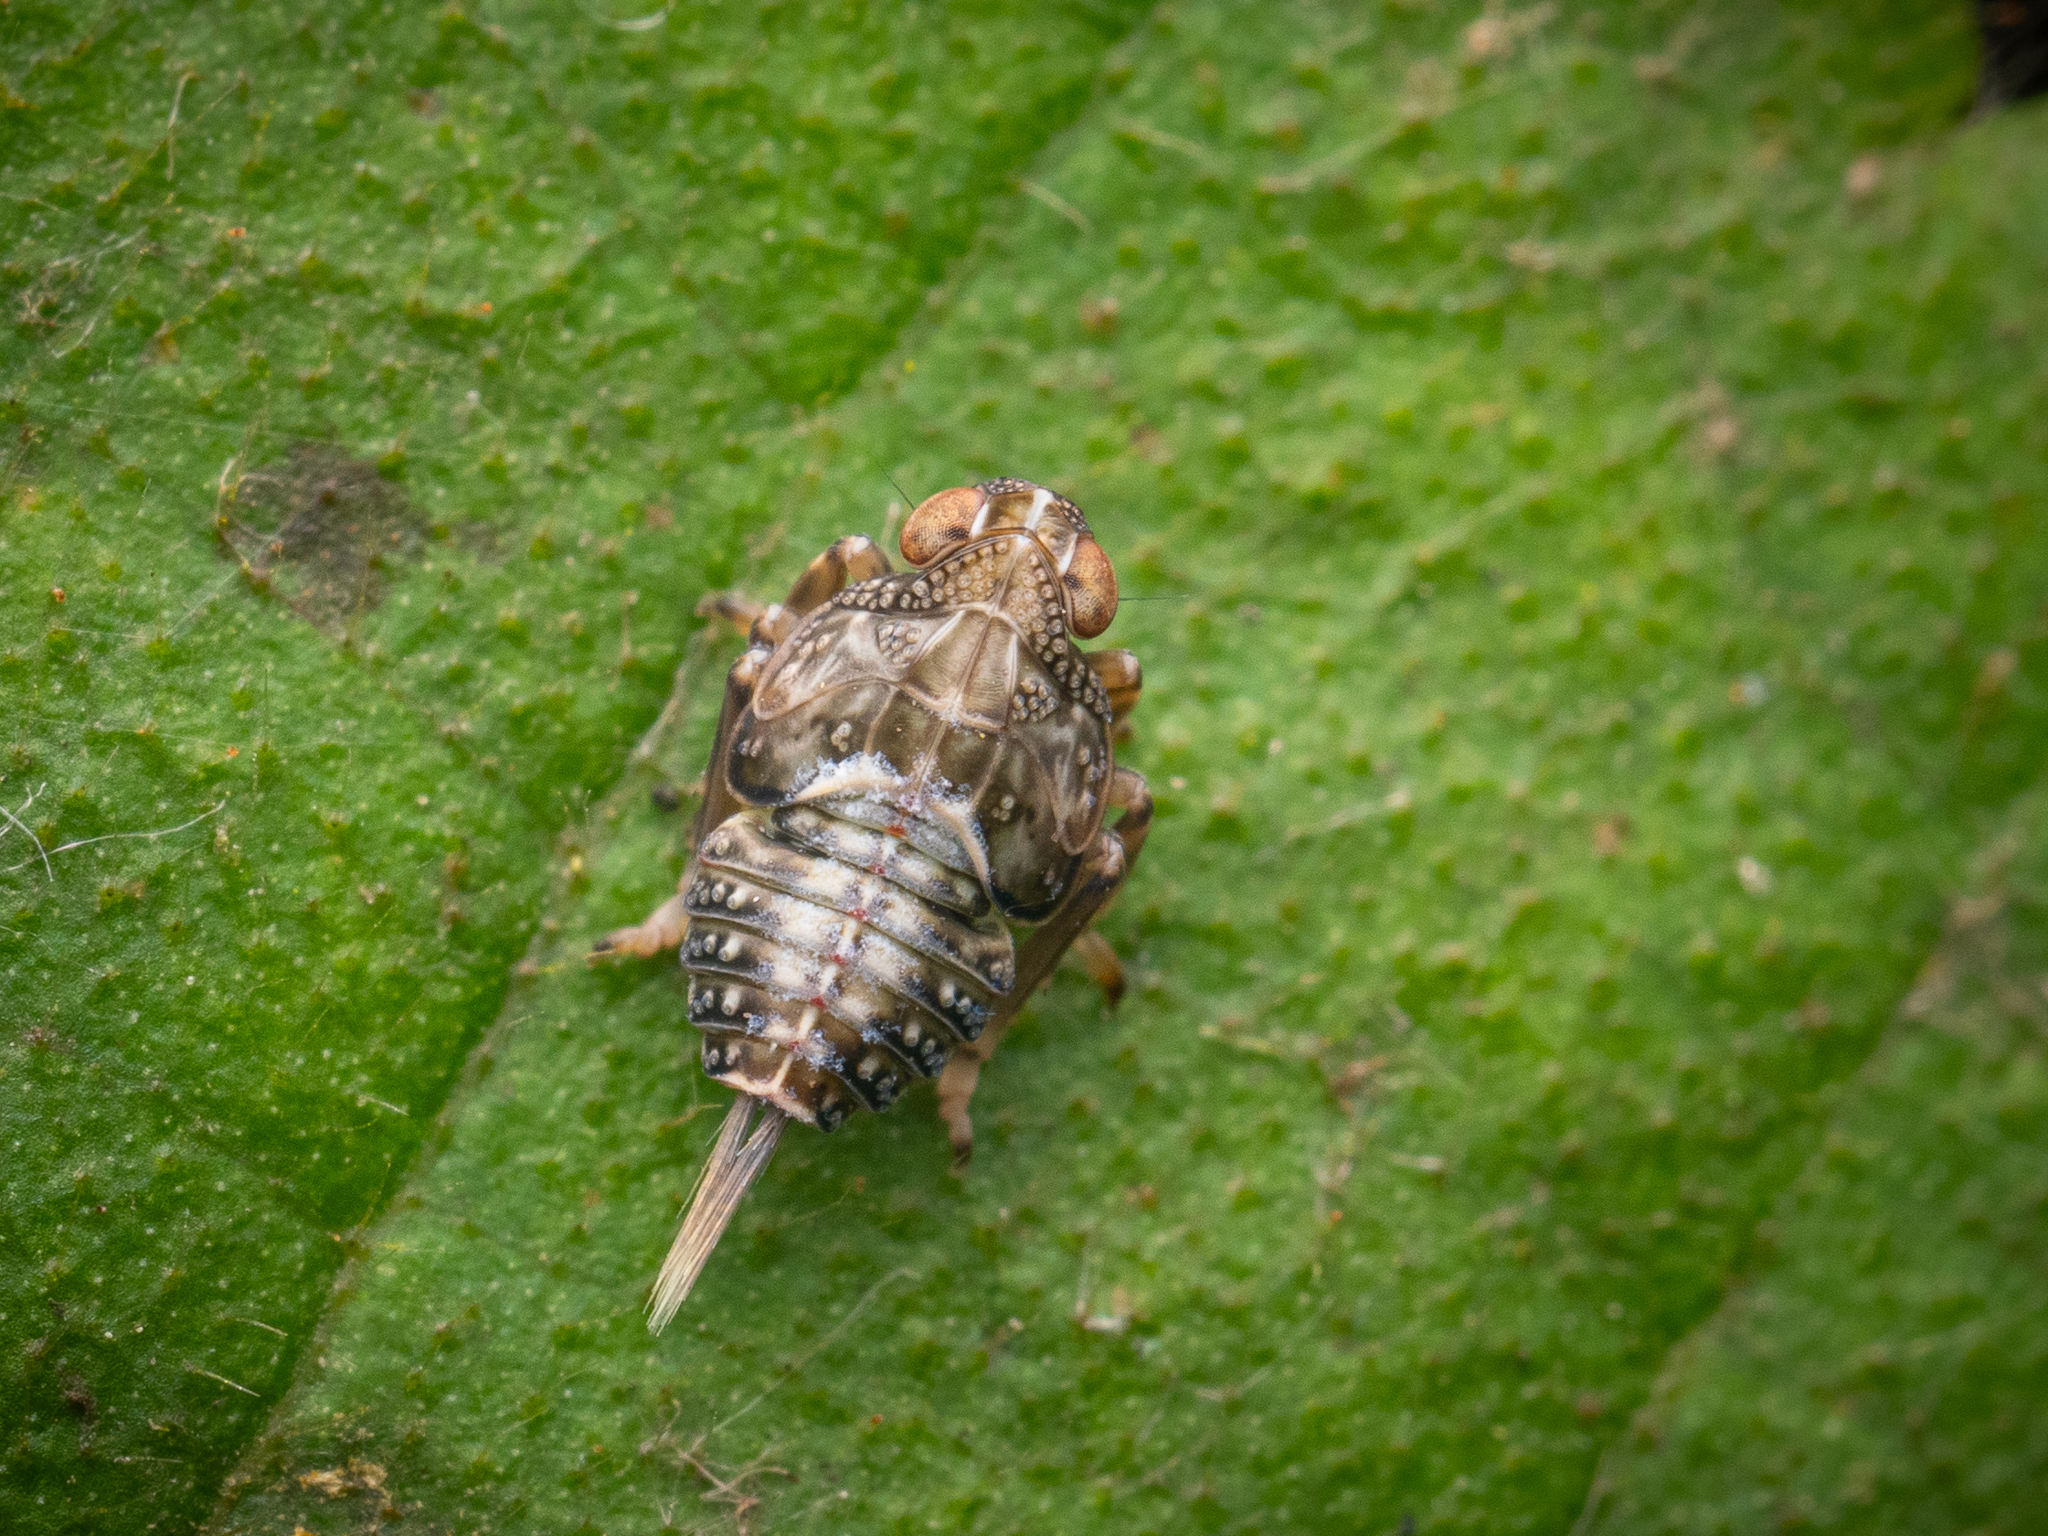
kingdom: Animalia
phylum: Arthropoda
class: Insecta
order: Hemiptera
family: Issidae
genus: Issus
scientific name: Issus coleoptratus
